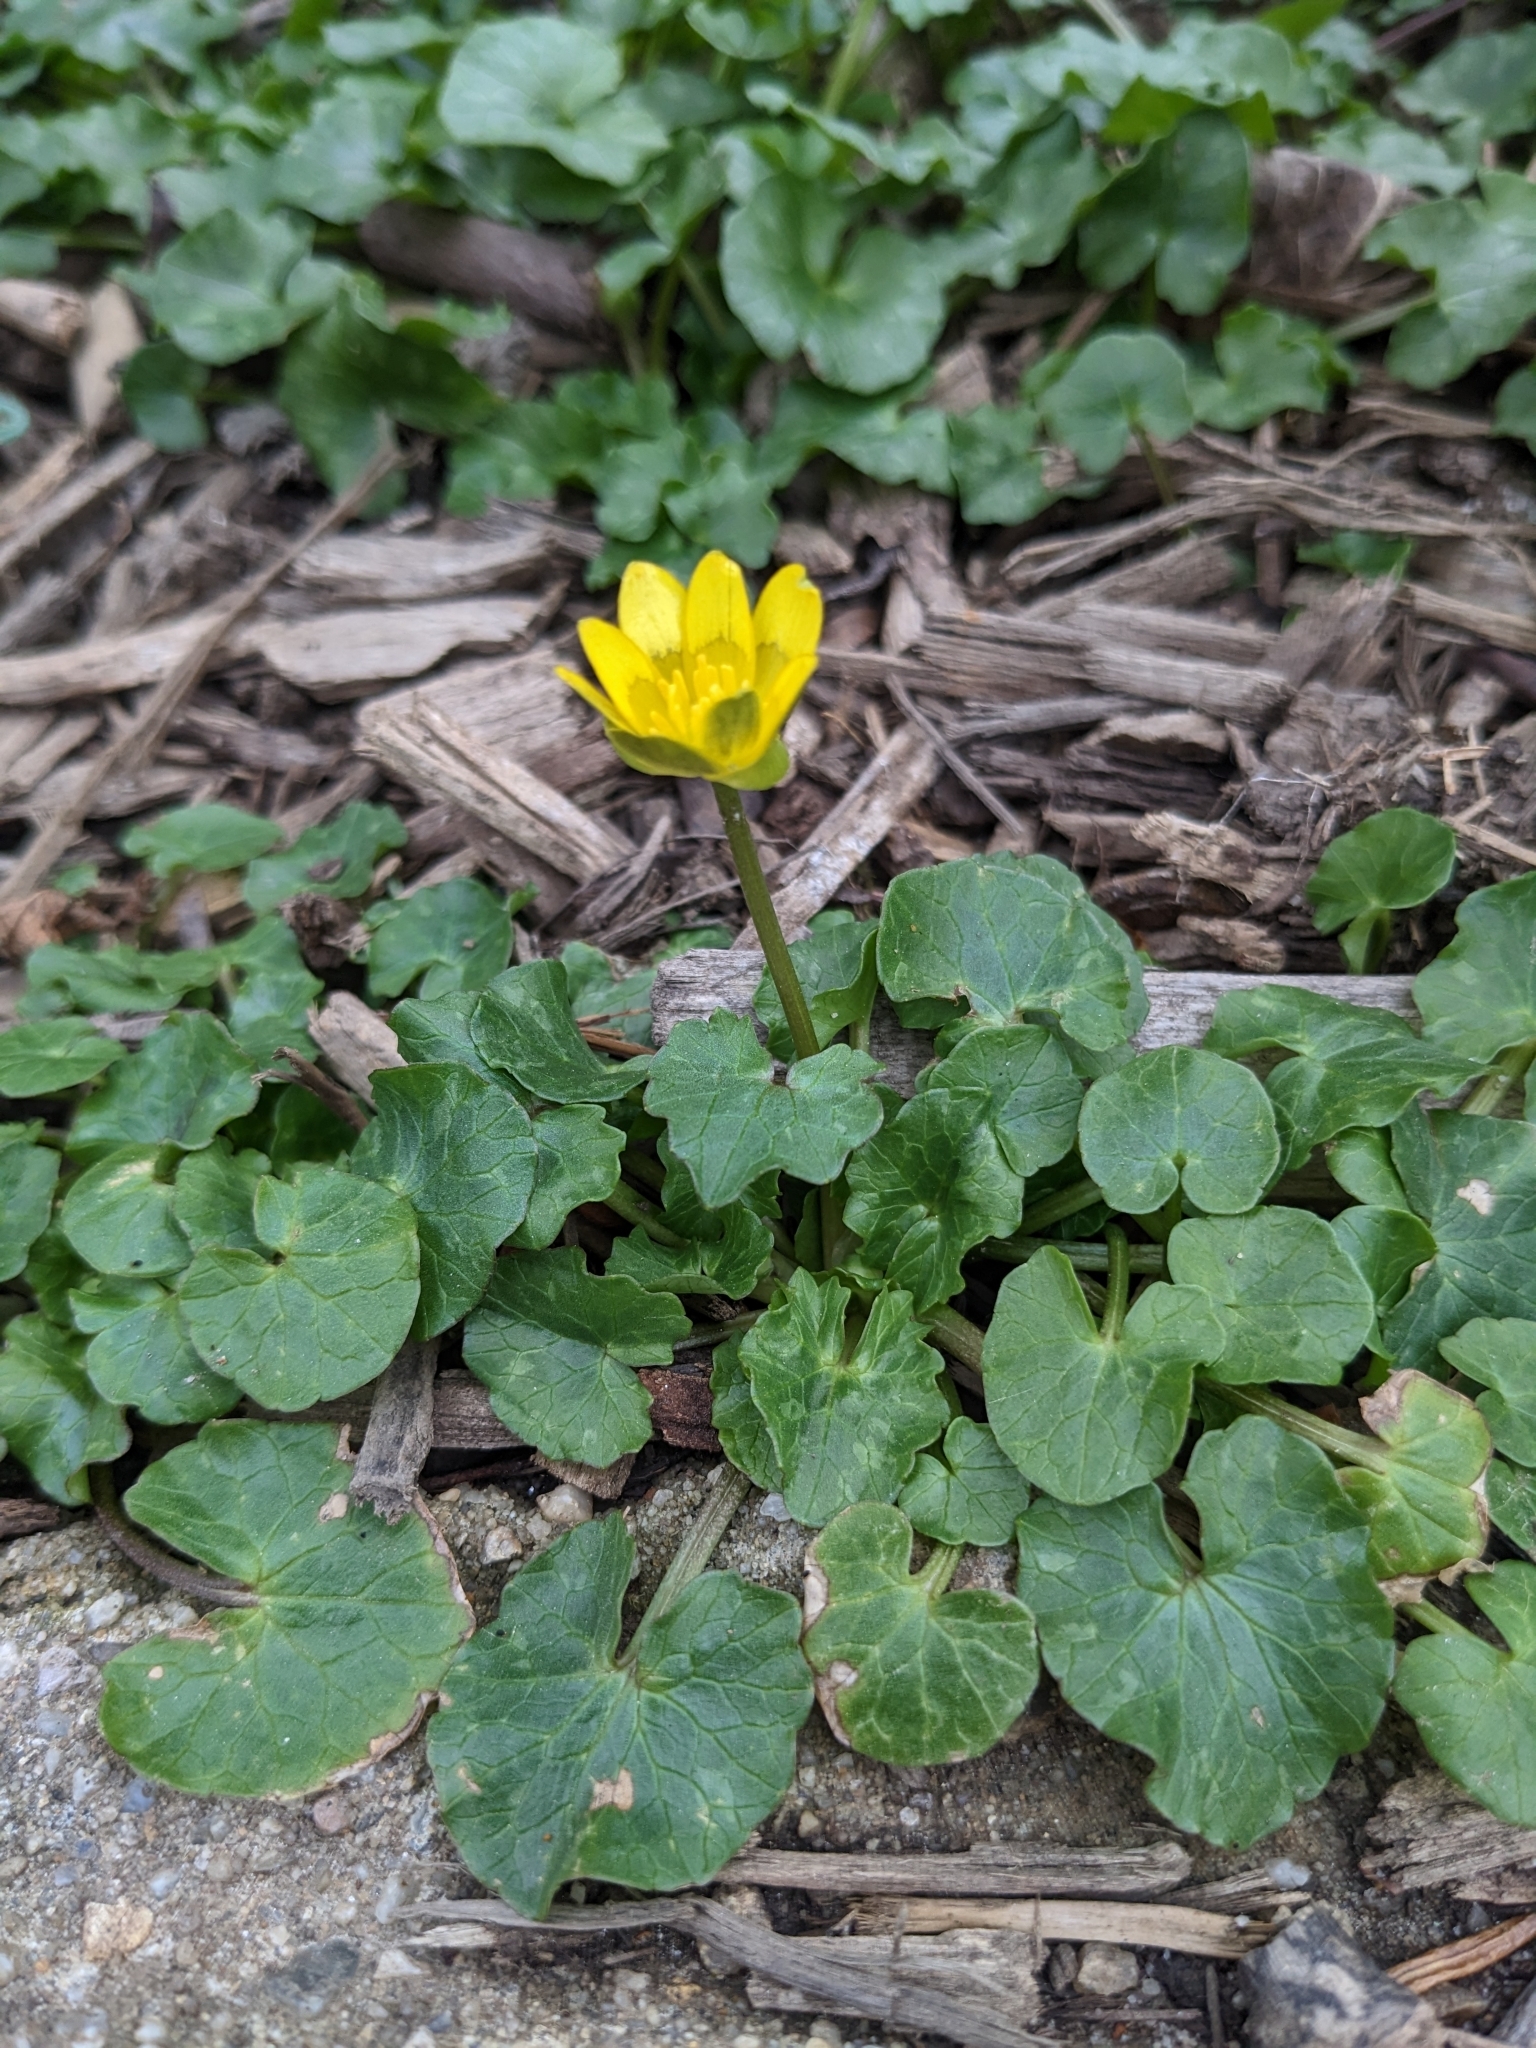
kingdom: Plantae
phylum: Tracheophyta
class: Magnoliopsida
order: Ranunculales
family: Ranunculaceae
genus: Ficaria
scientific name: Ficaria verna
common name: Lesser celandine
